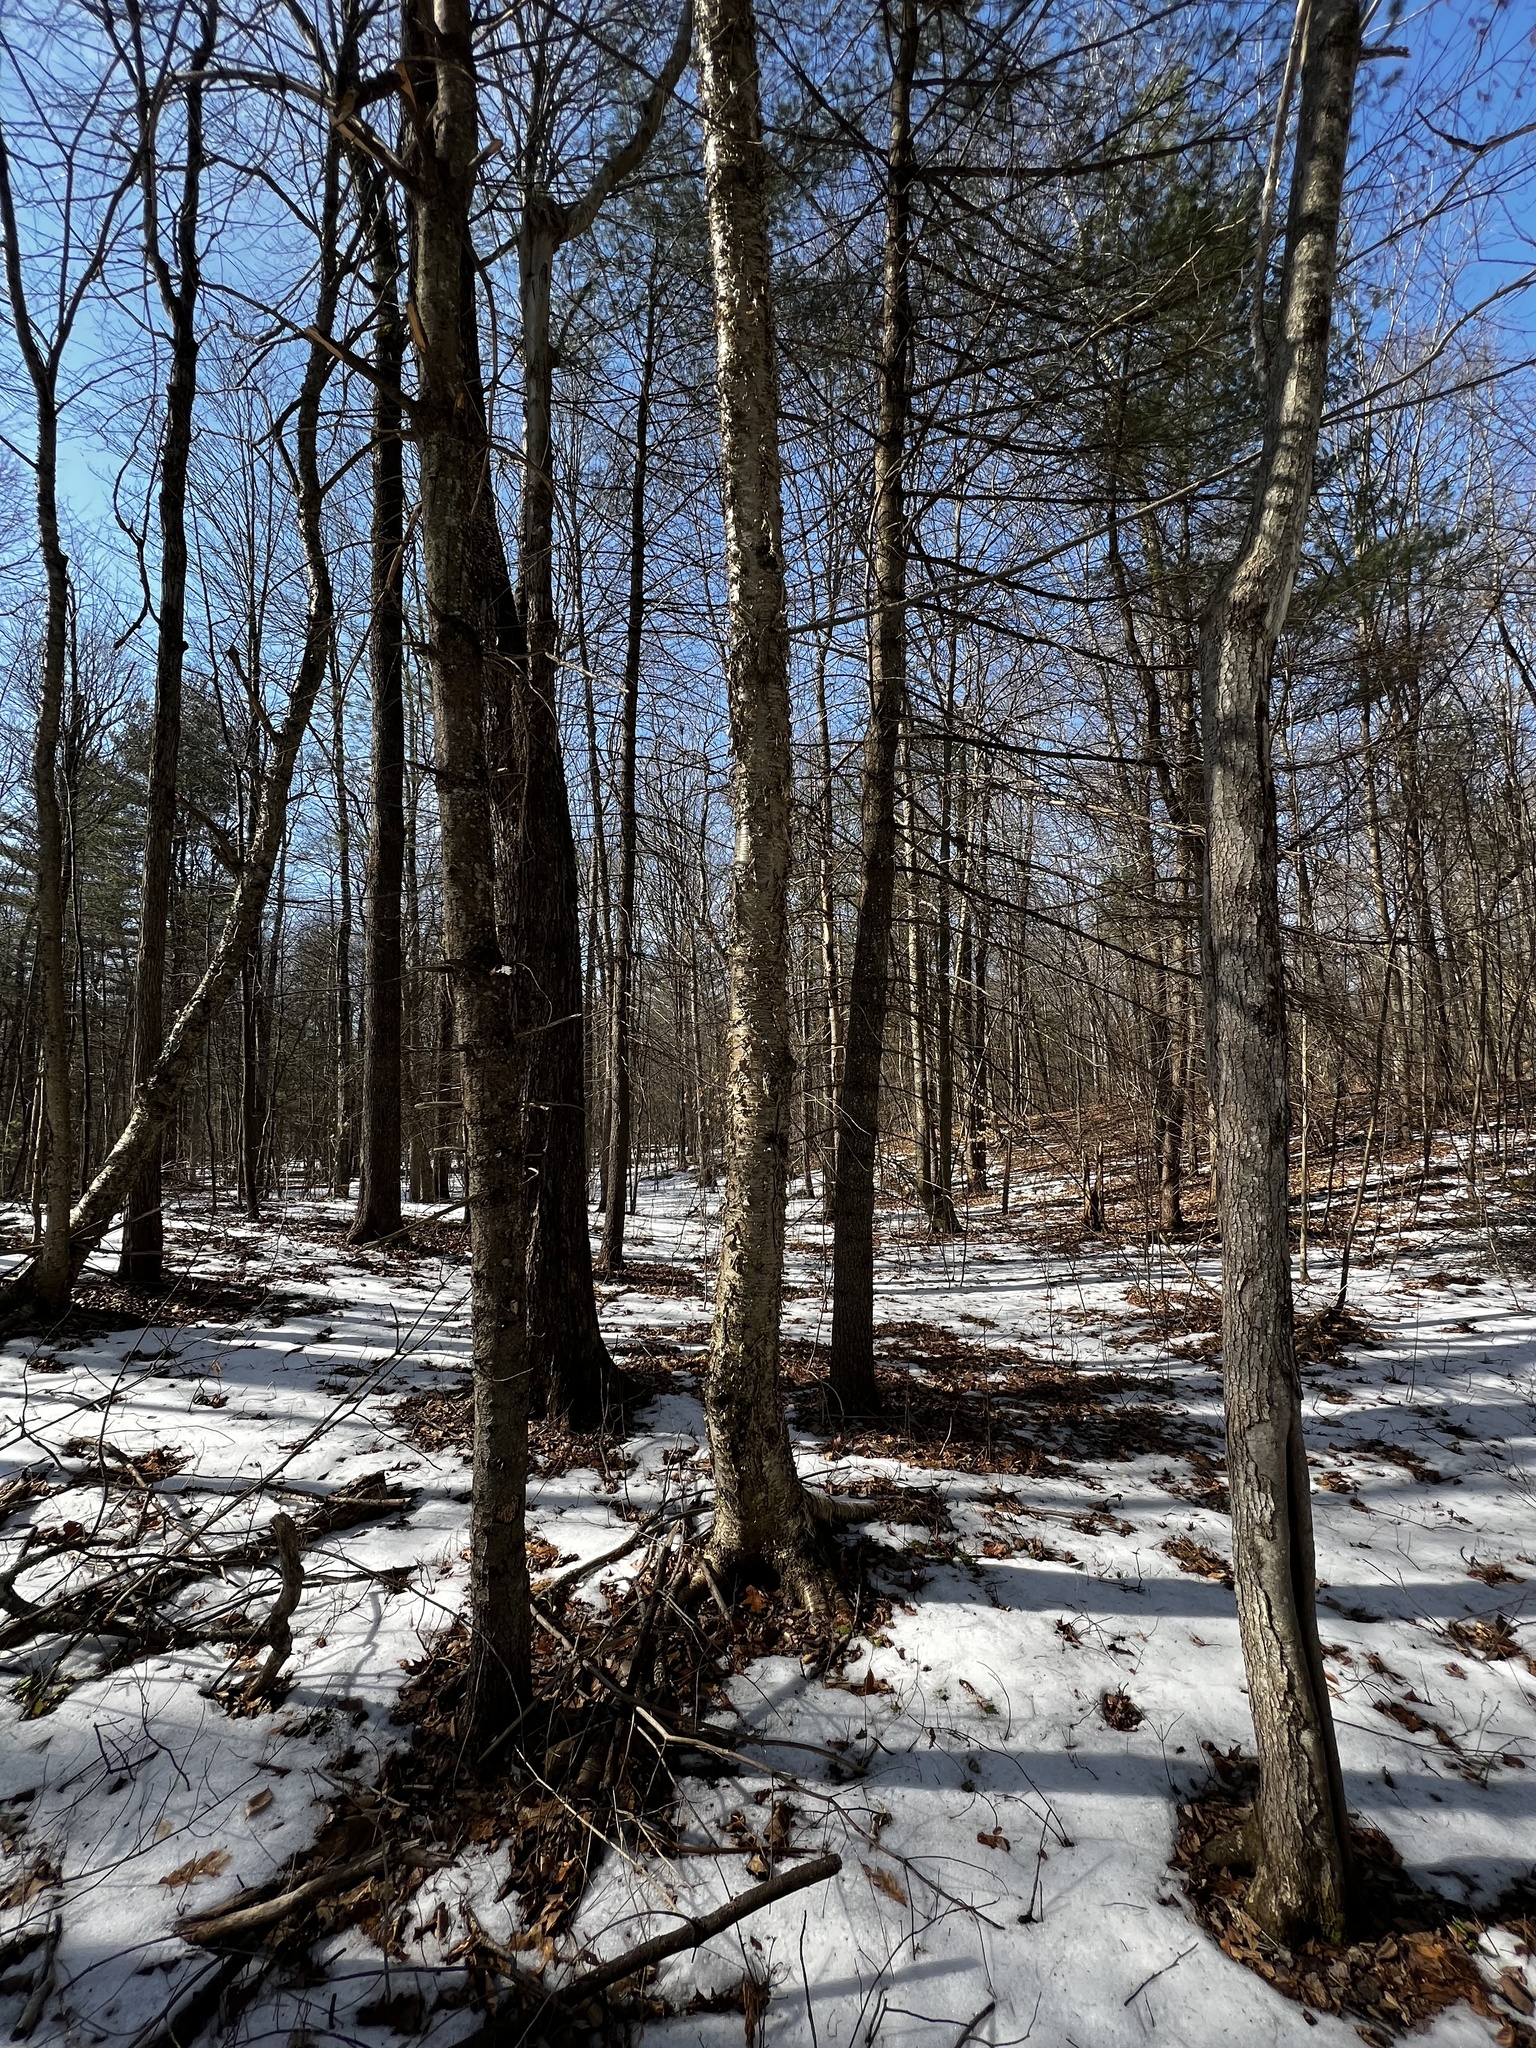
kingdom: Plantae
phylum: Tracheophyta
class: Magnoliopsida
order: Fagales
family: Betulaceae
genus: Betula
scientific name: Betula alleghaniensis
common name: Yellow birch
